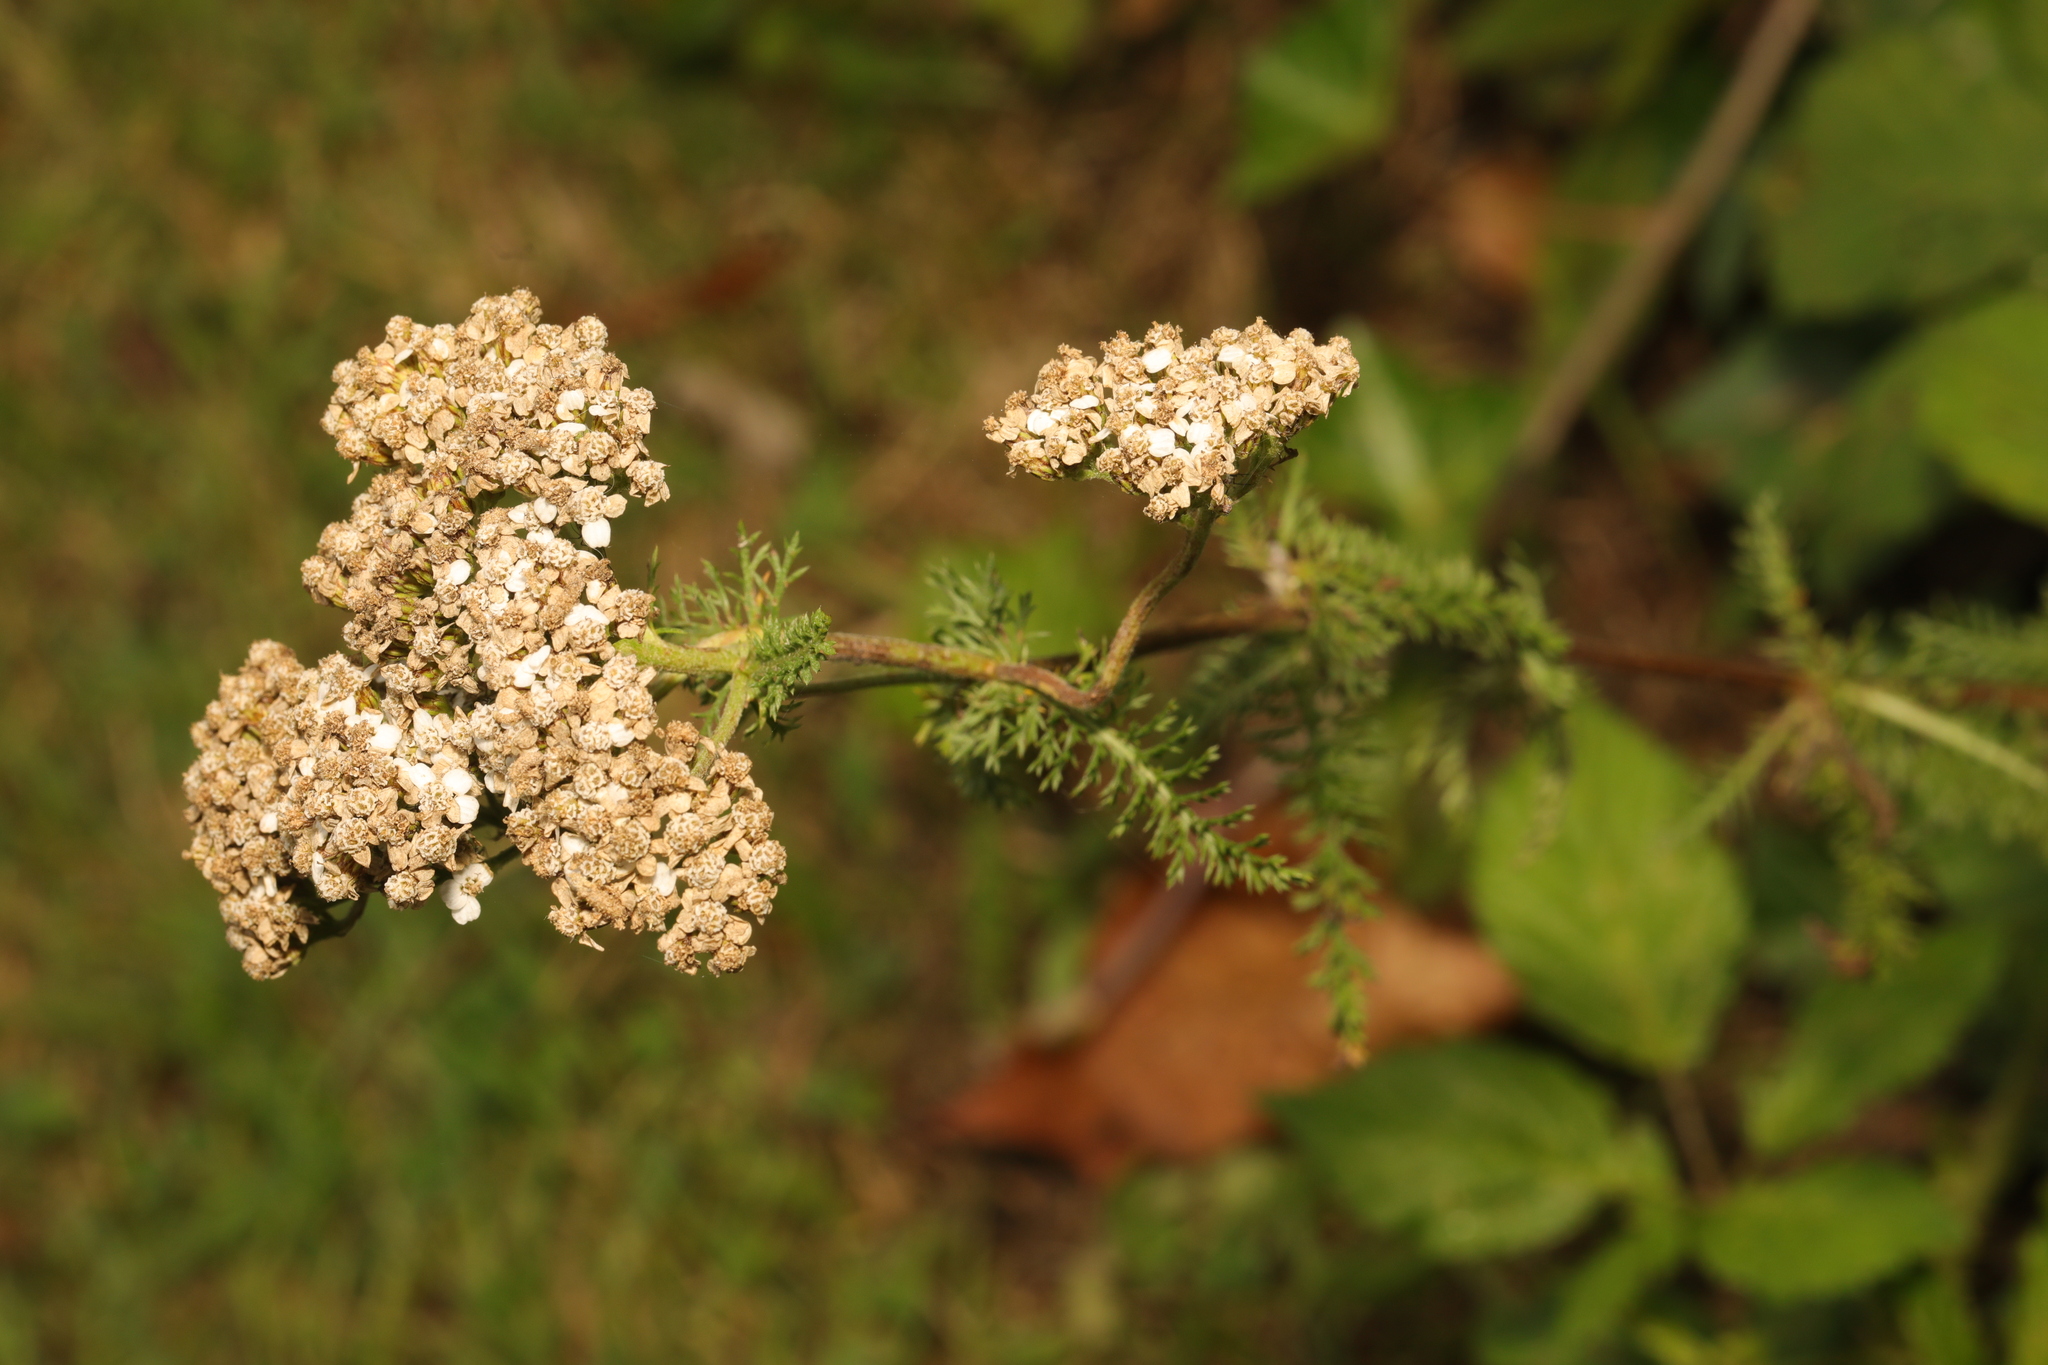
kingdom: Plantae
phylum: Tracheophyta
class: Magnoliopsida
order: Asterales
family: Asteraceae
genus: Achillea
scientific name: Achillea millefolium
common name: Yarrow
